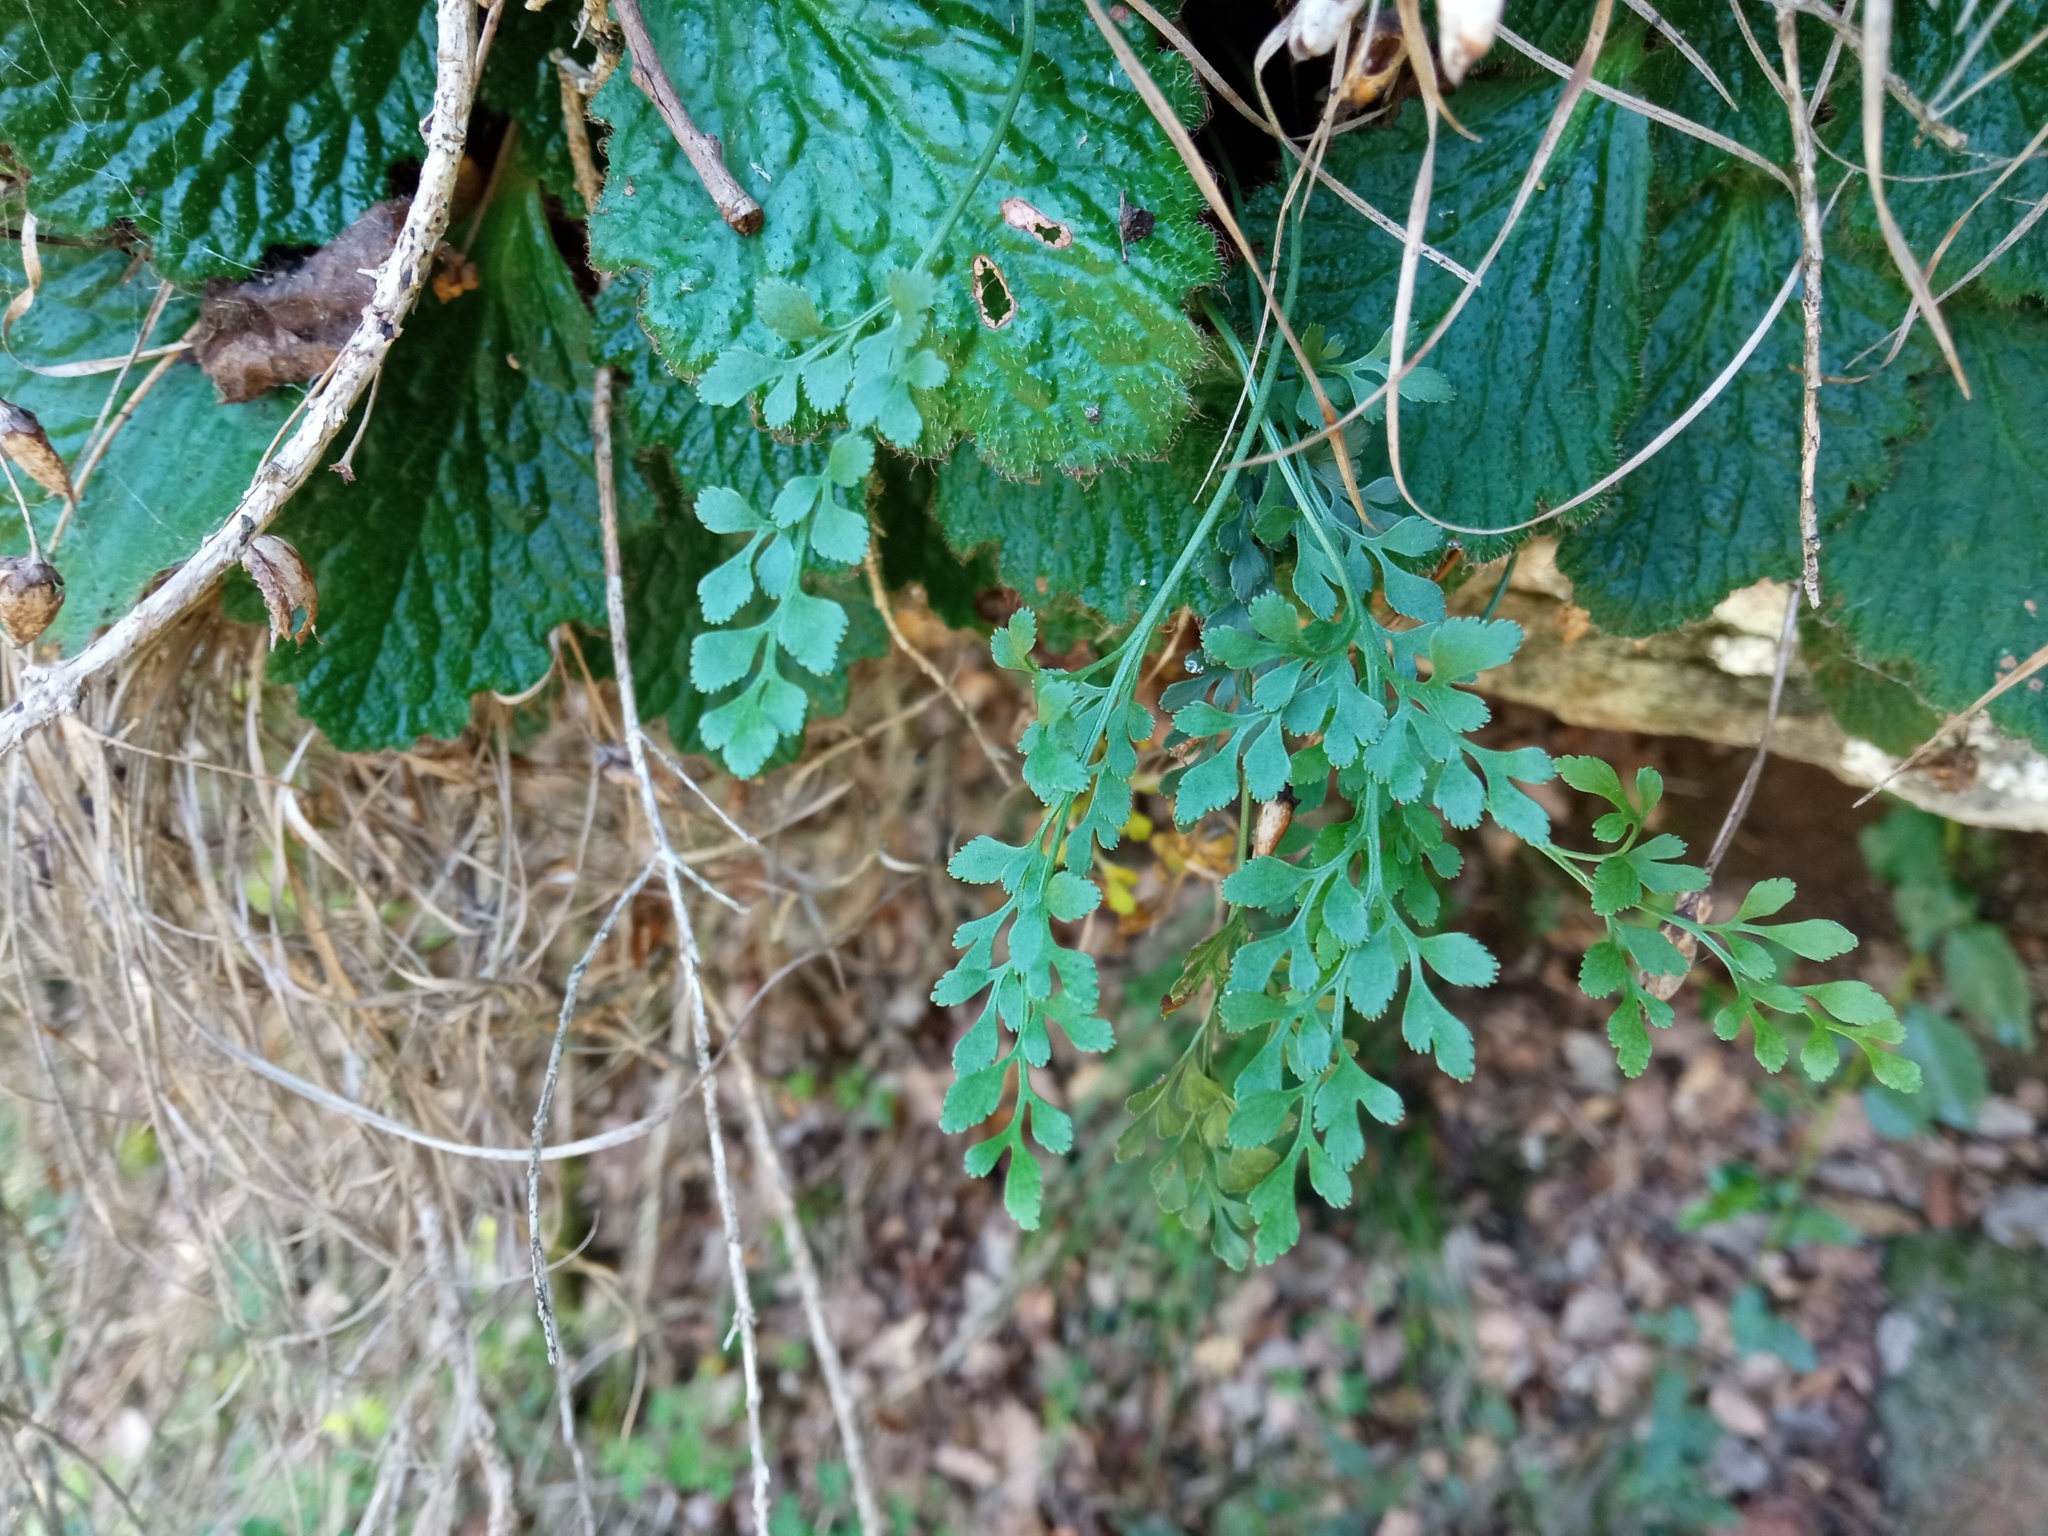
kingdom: Plantae
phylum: Tracheophyta
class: Polypodiopsida
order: Polypodiales
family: Aspleniaceae
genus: Asplenium
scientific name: Asplenium ruta-muraria
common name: Wall-rue
